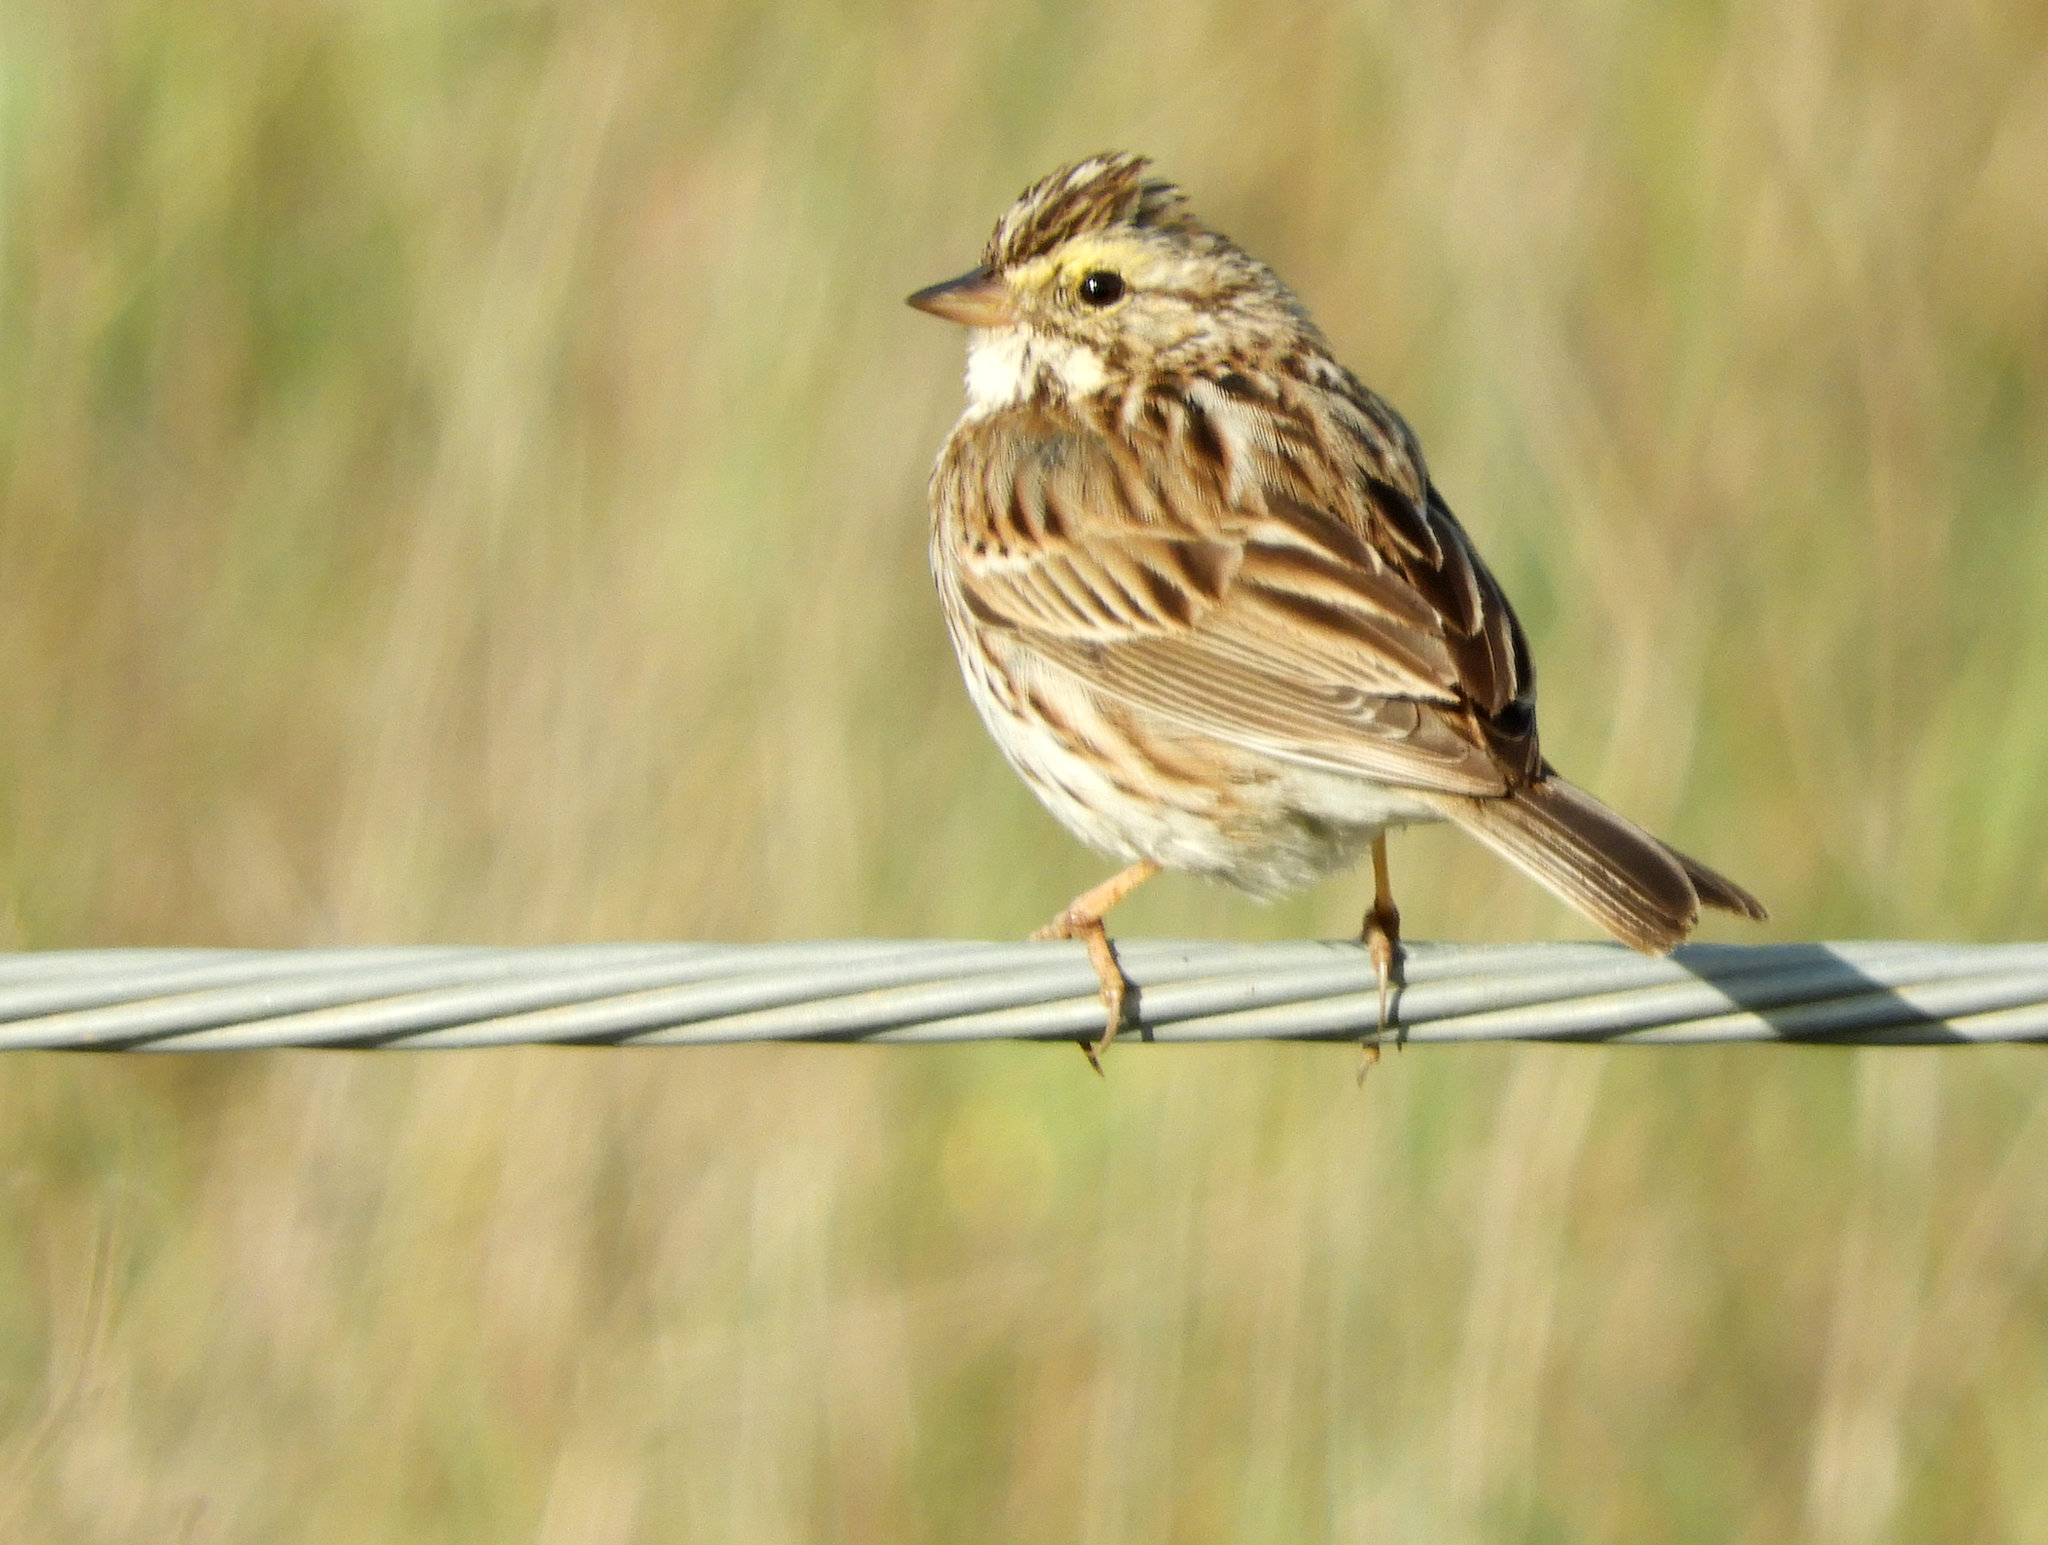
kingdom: Animalia
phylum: Chordata
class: Aves
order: Passeriformes
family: Passerellidae
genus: Passerculus
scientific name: Passerculus sandwichensis
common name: Savannah sparrow
